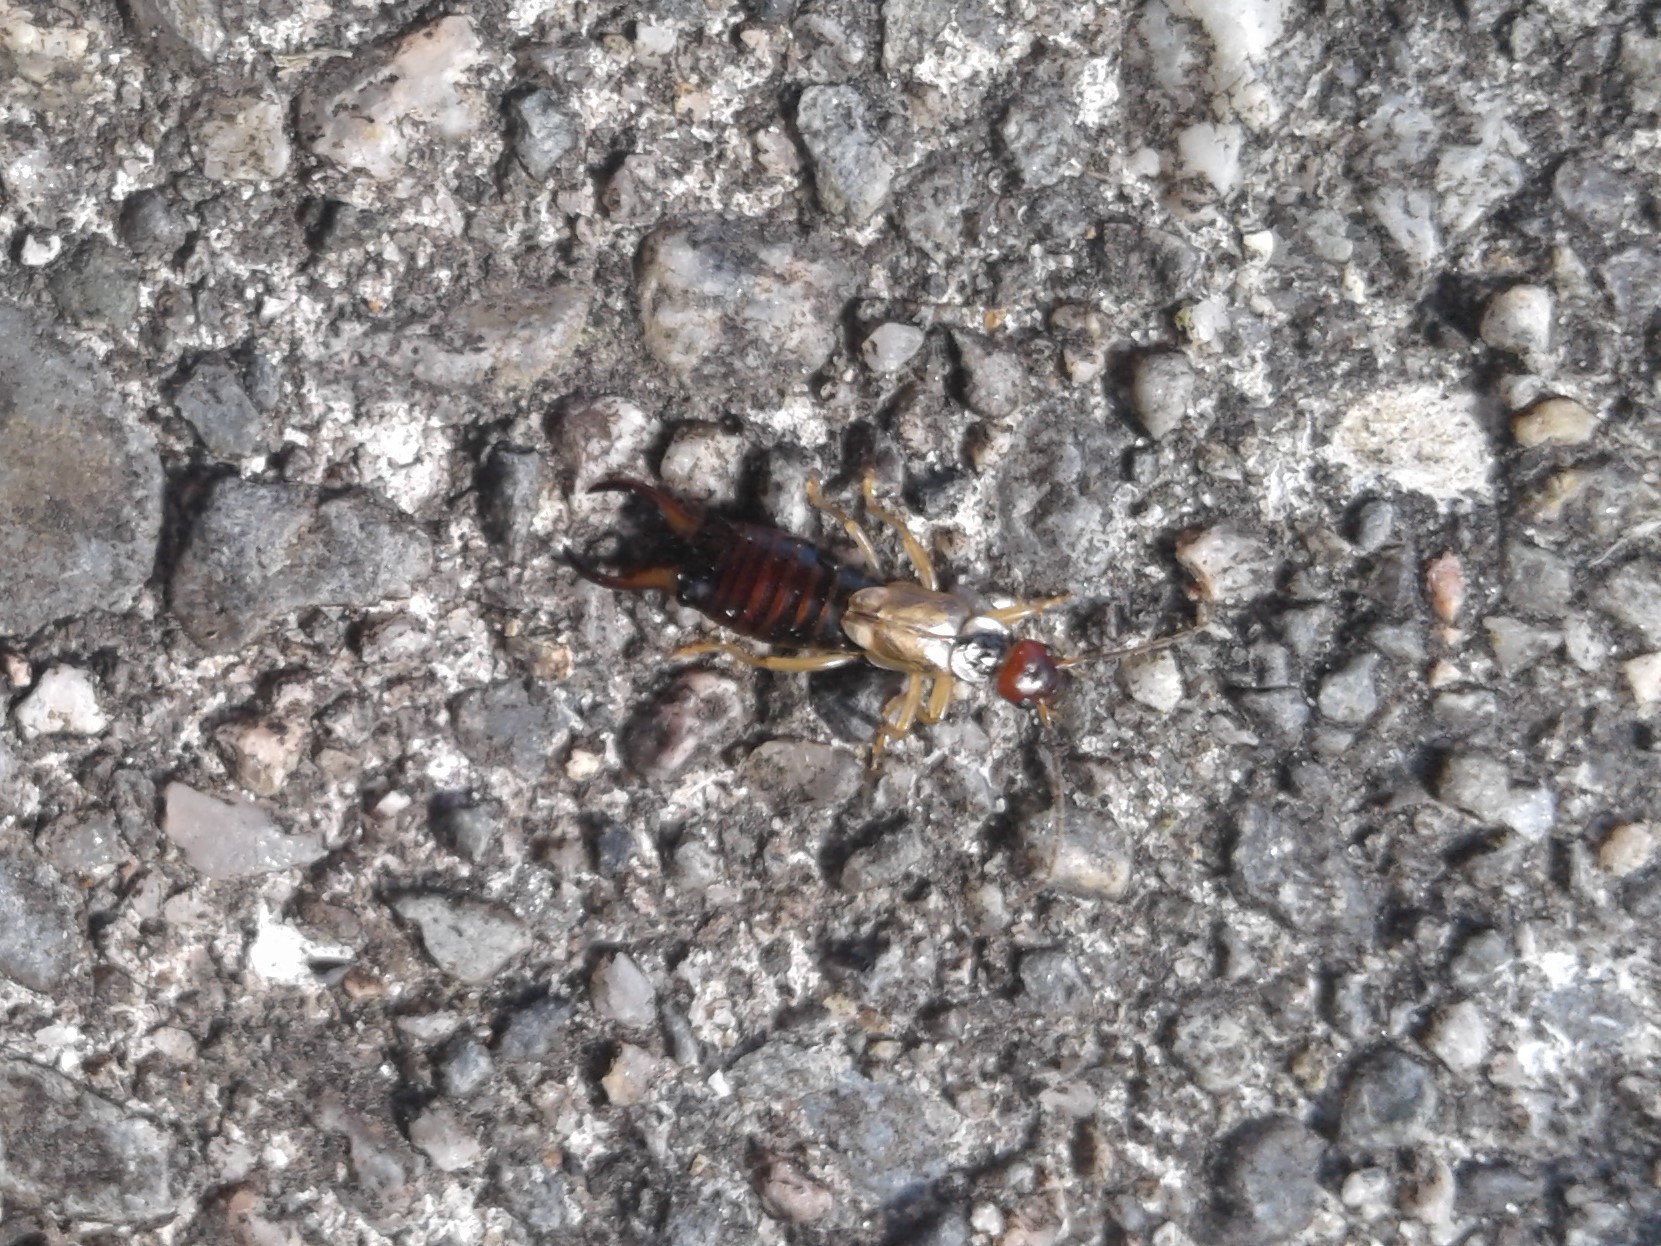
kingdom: Animalia
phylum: Arthropoda
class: Insecta
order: Dermaptera
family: Forficulidae
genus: Forficula
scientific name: Forficula
